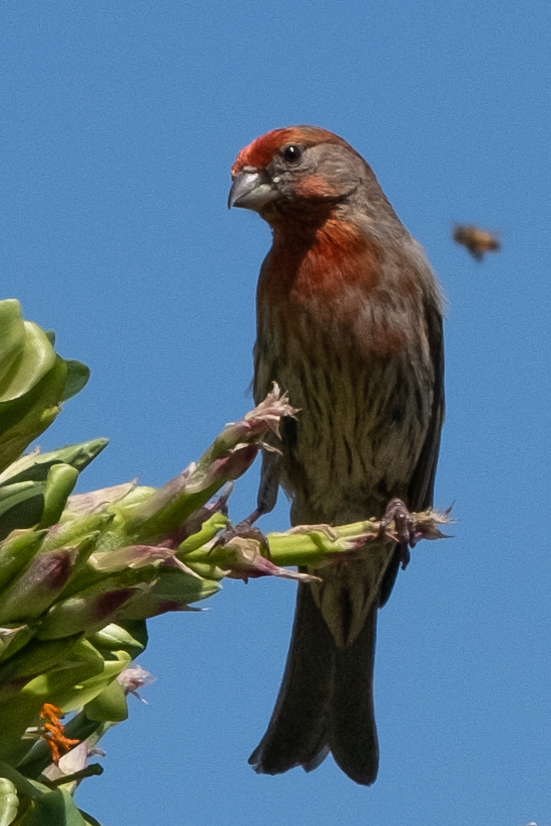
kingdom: Animalia
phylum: Chordata
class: Aves
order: Passeriformes
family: Fringillidae
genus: Haemorhous
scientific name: Haemorhous mexicanus
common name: House finch
